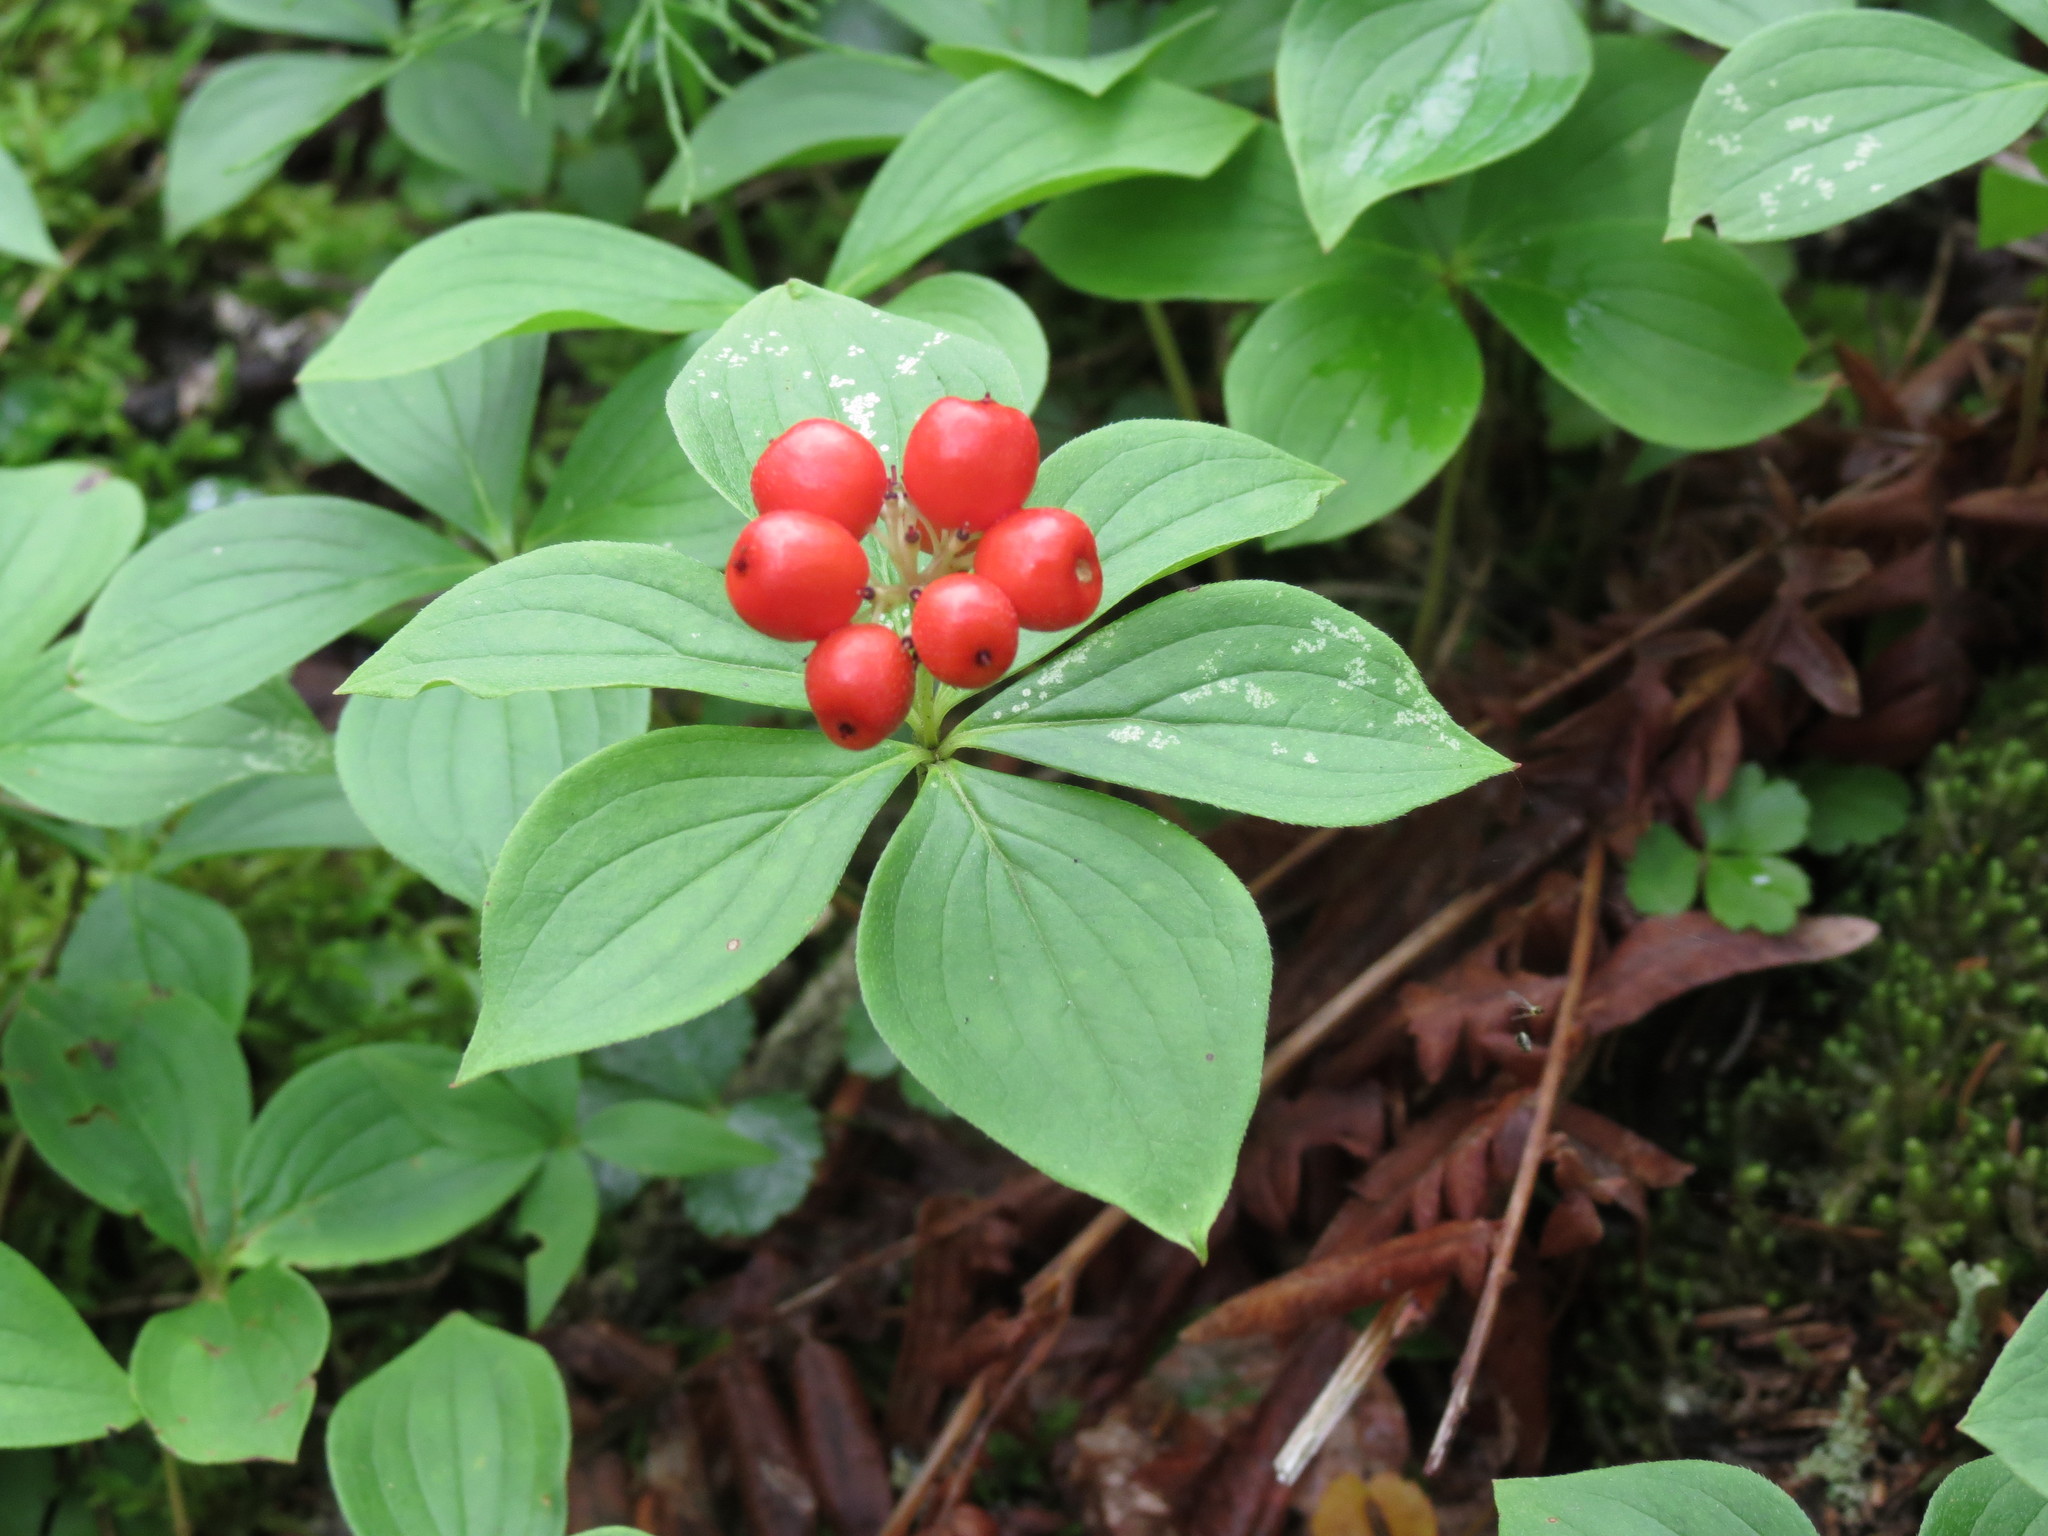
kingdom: Plantae
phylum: Tracheophyta
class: Magnoliopsida
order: Cornales
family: Cornaceae
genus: Cornus
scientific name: Cornus canadensis
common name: Creeping dogwood
